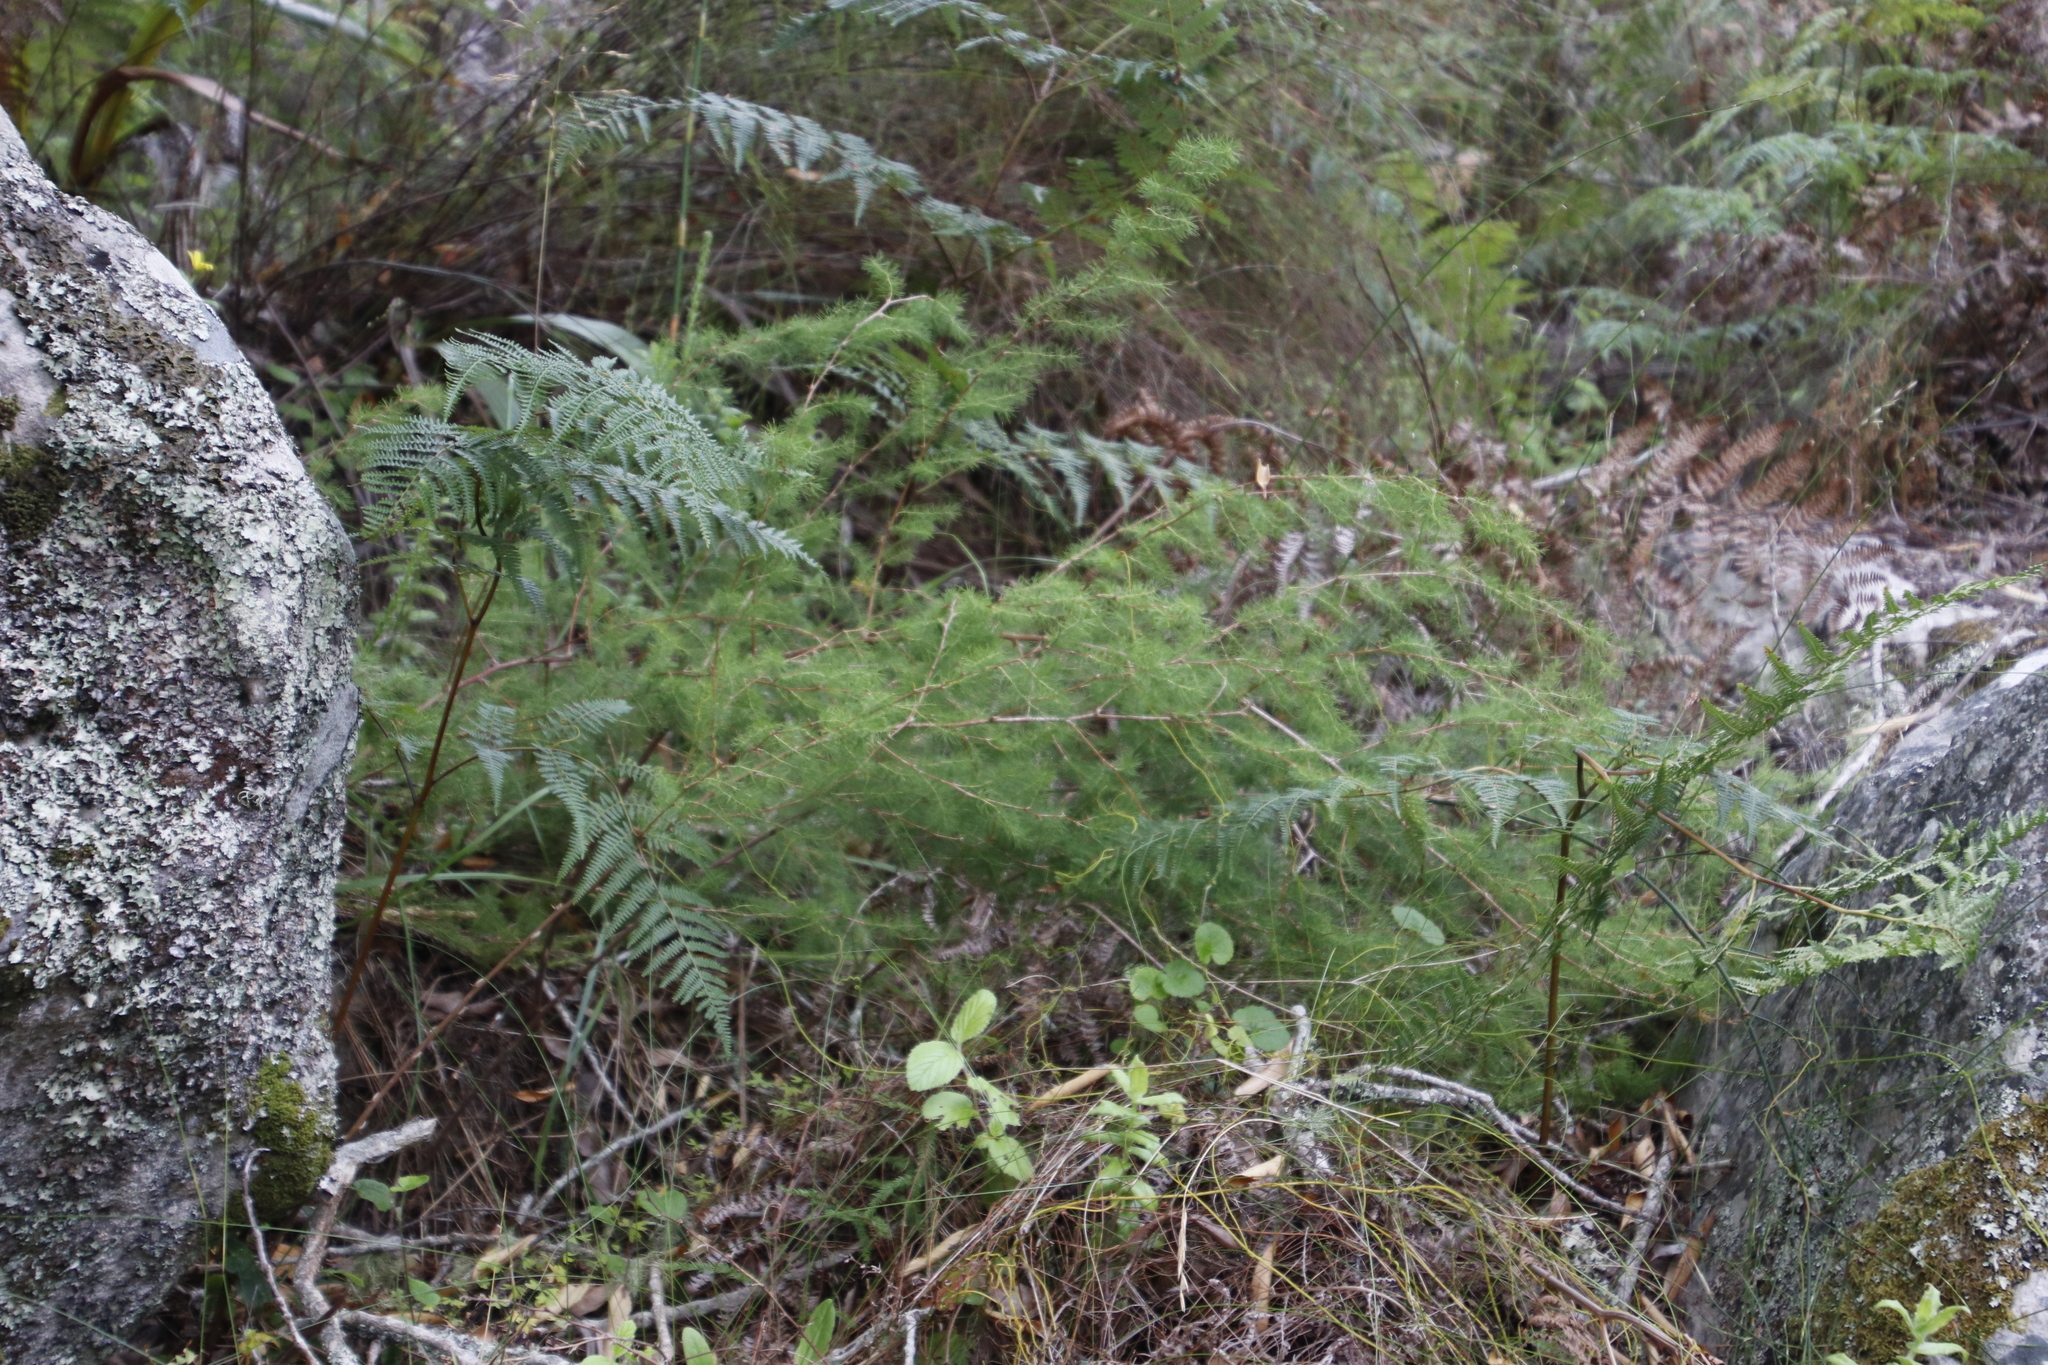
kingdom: Plantae
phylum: Tracheophyta
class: Liliopsida
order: Asparagales
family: Asparagaceae
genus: Asparagus
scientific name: Asparagus rubicundus
